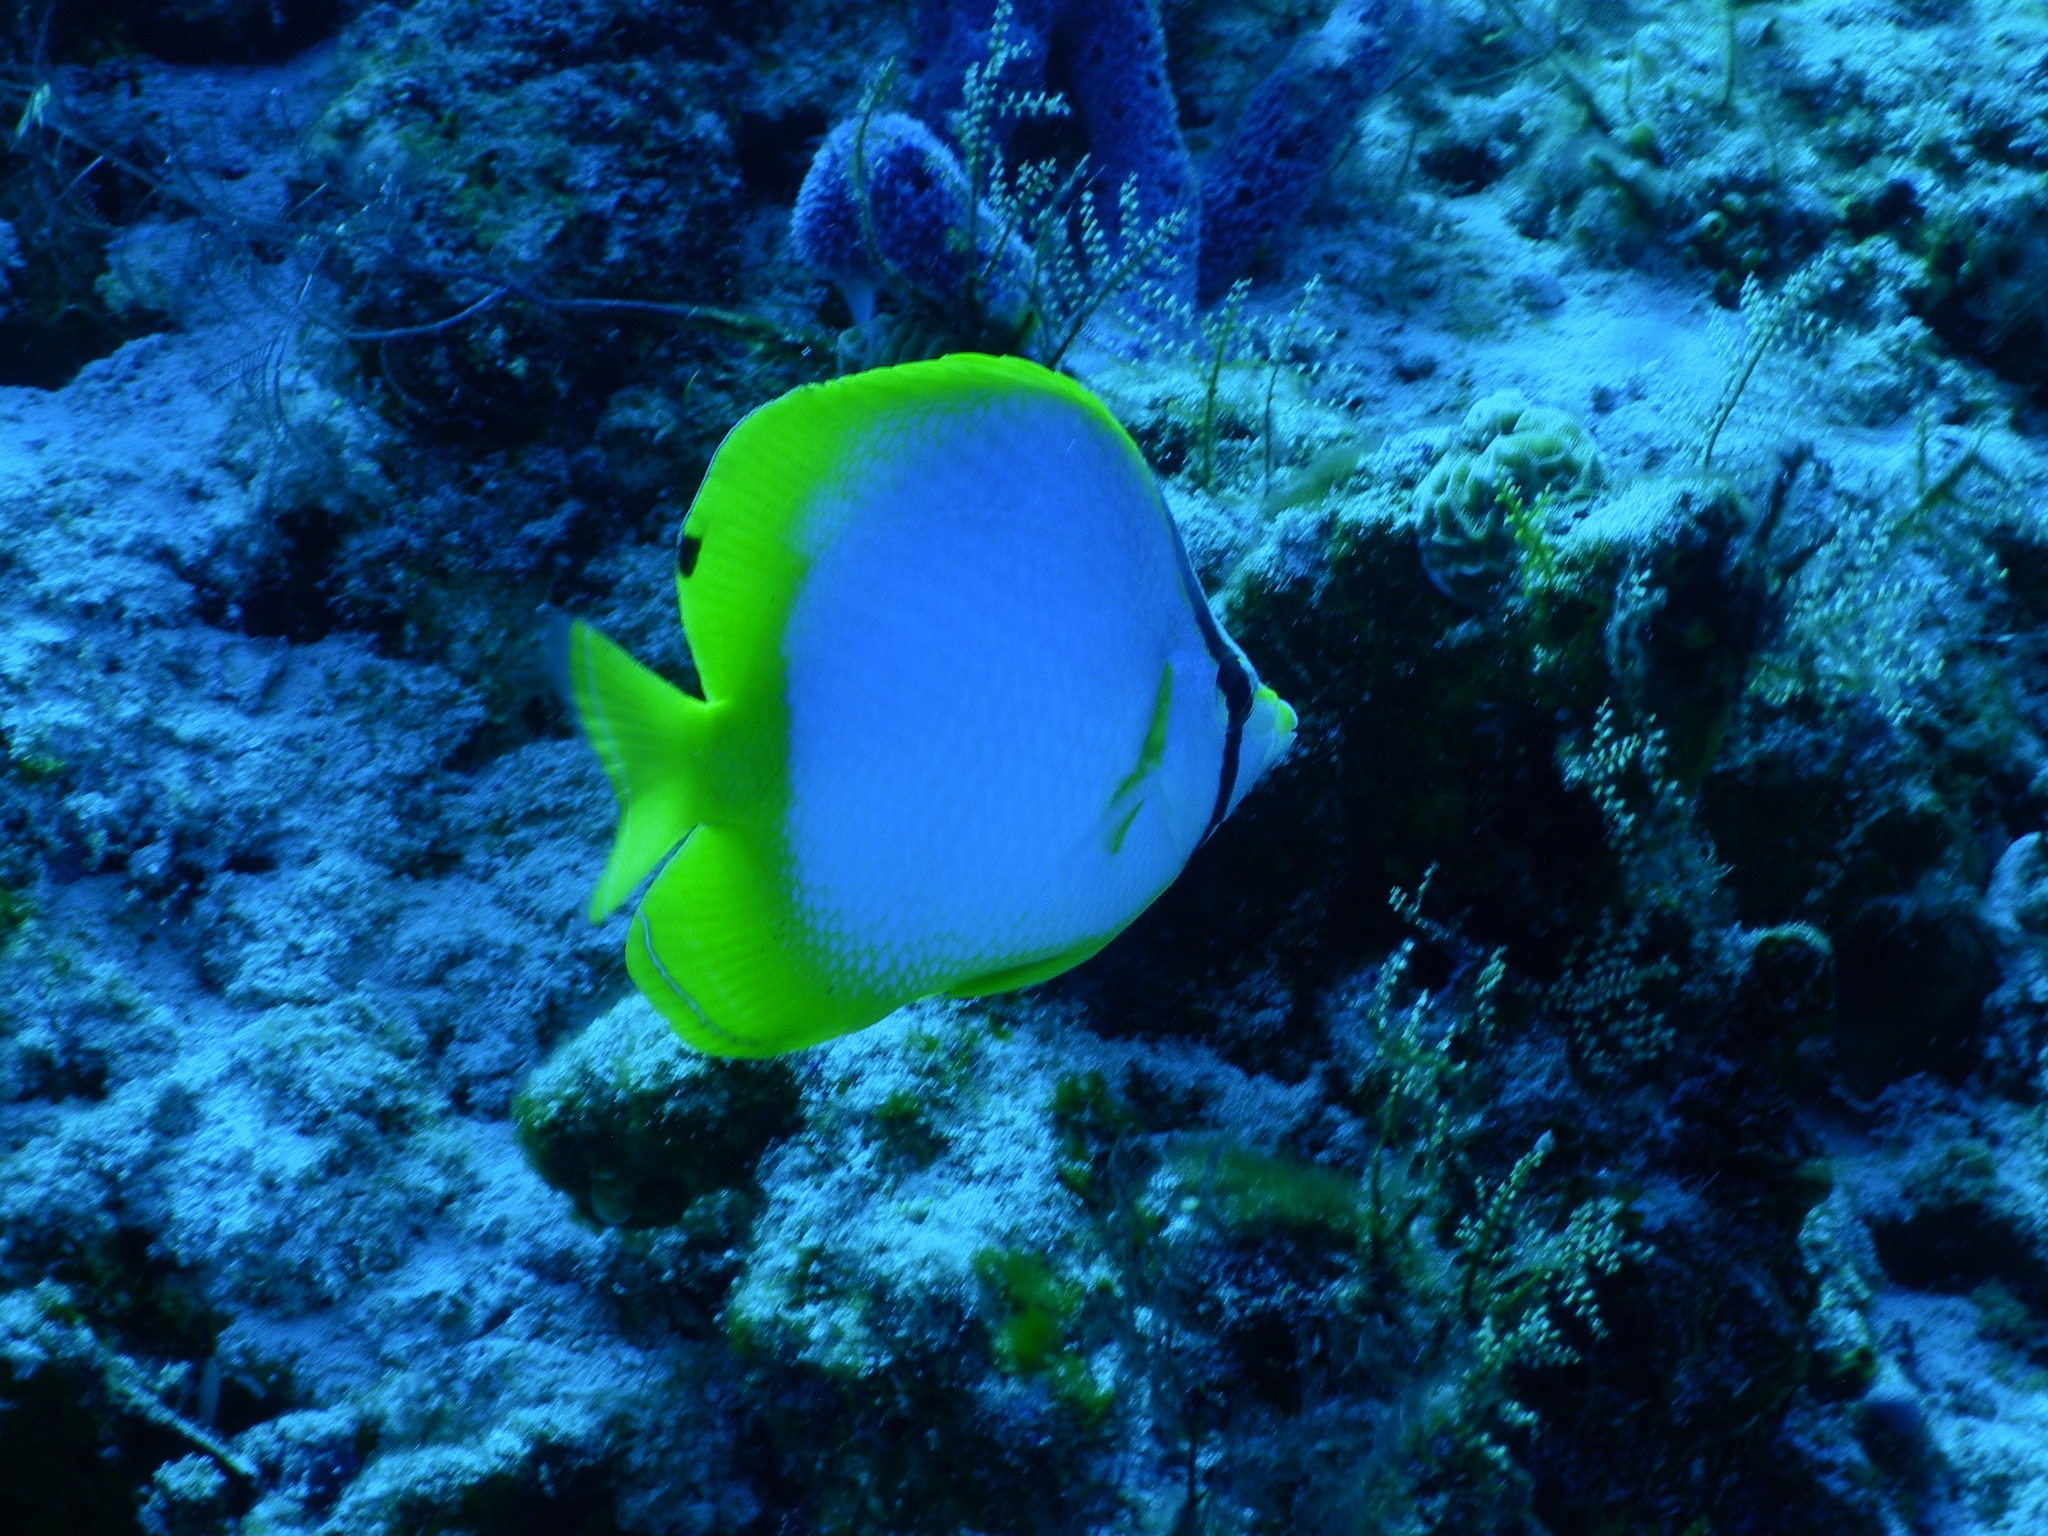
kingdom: Animalia
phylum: Chordata
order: Perciformes
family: Chaetodontidae
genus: Chaetodon
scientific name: Chaetodon ocellatus
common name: Spotfin butterflyfish
